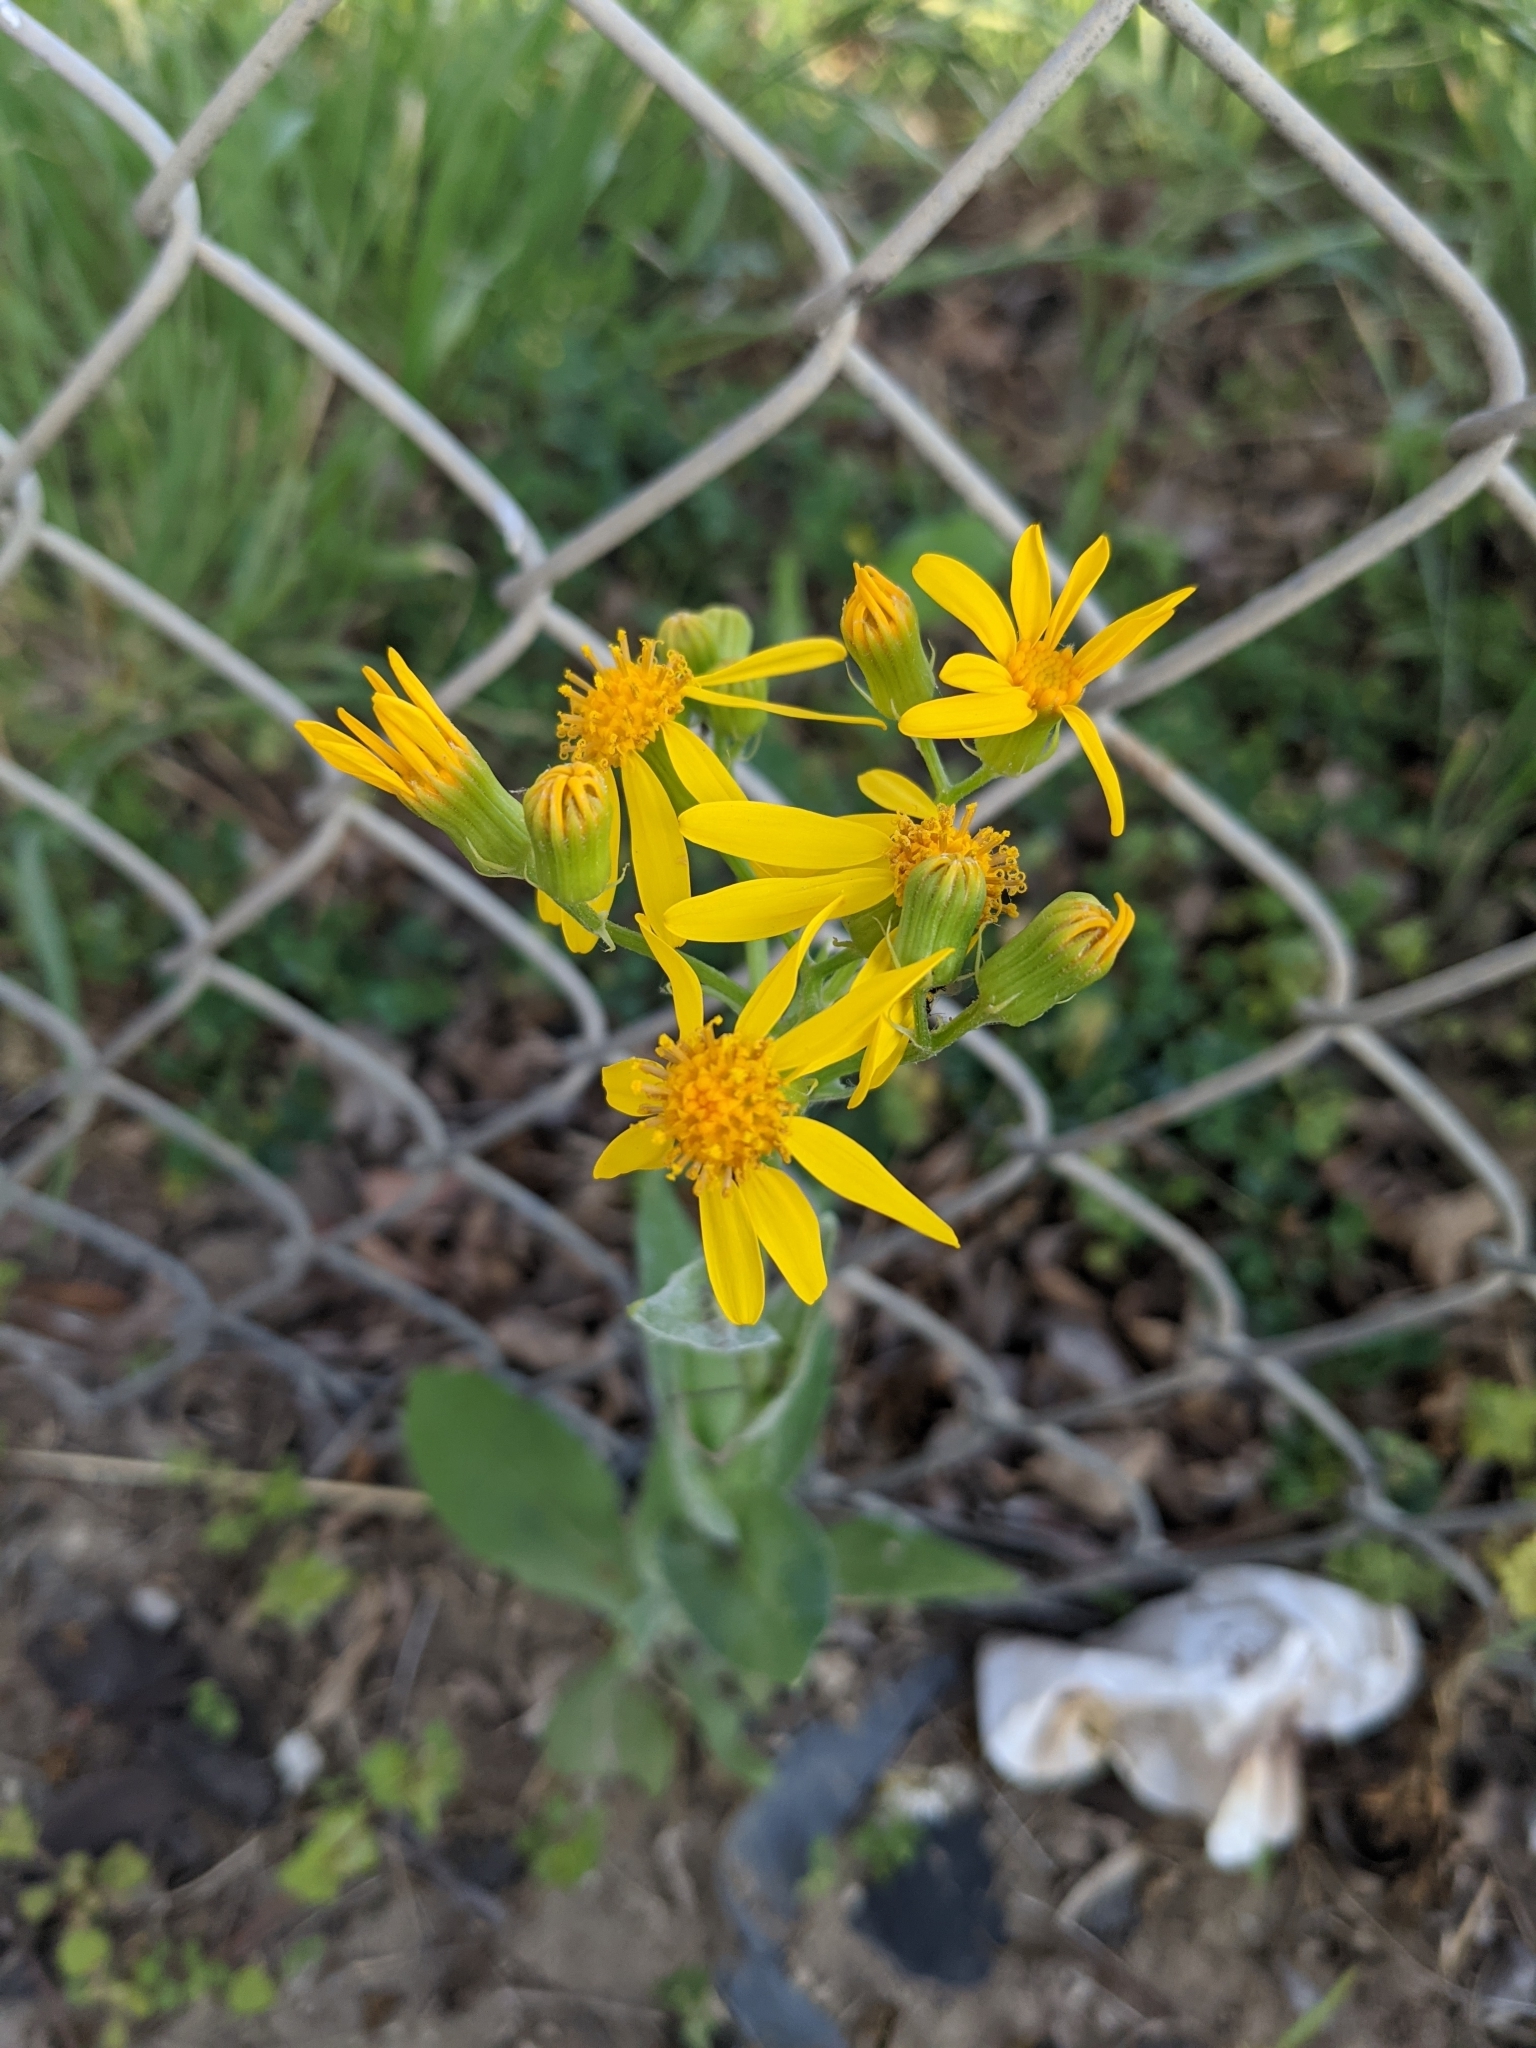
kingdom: Plantae
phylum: Tracheophyta
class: Magnoliopsida
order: Asterales
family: Asteraceae
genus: Senecio
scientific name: Senecio ampullaceus
